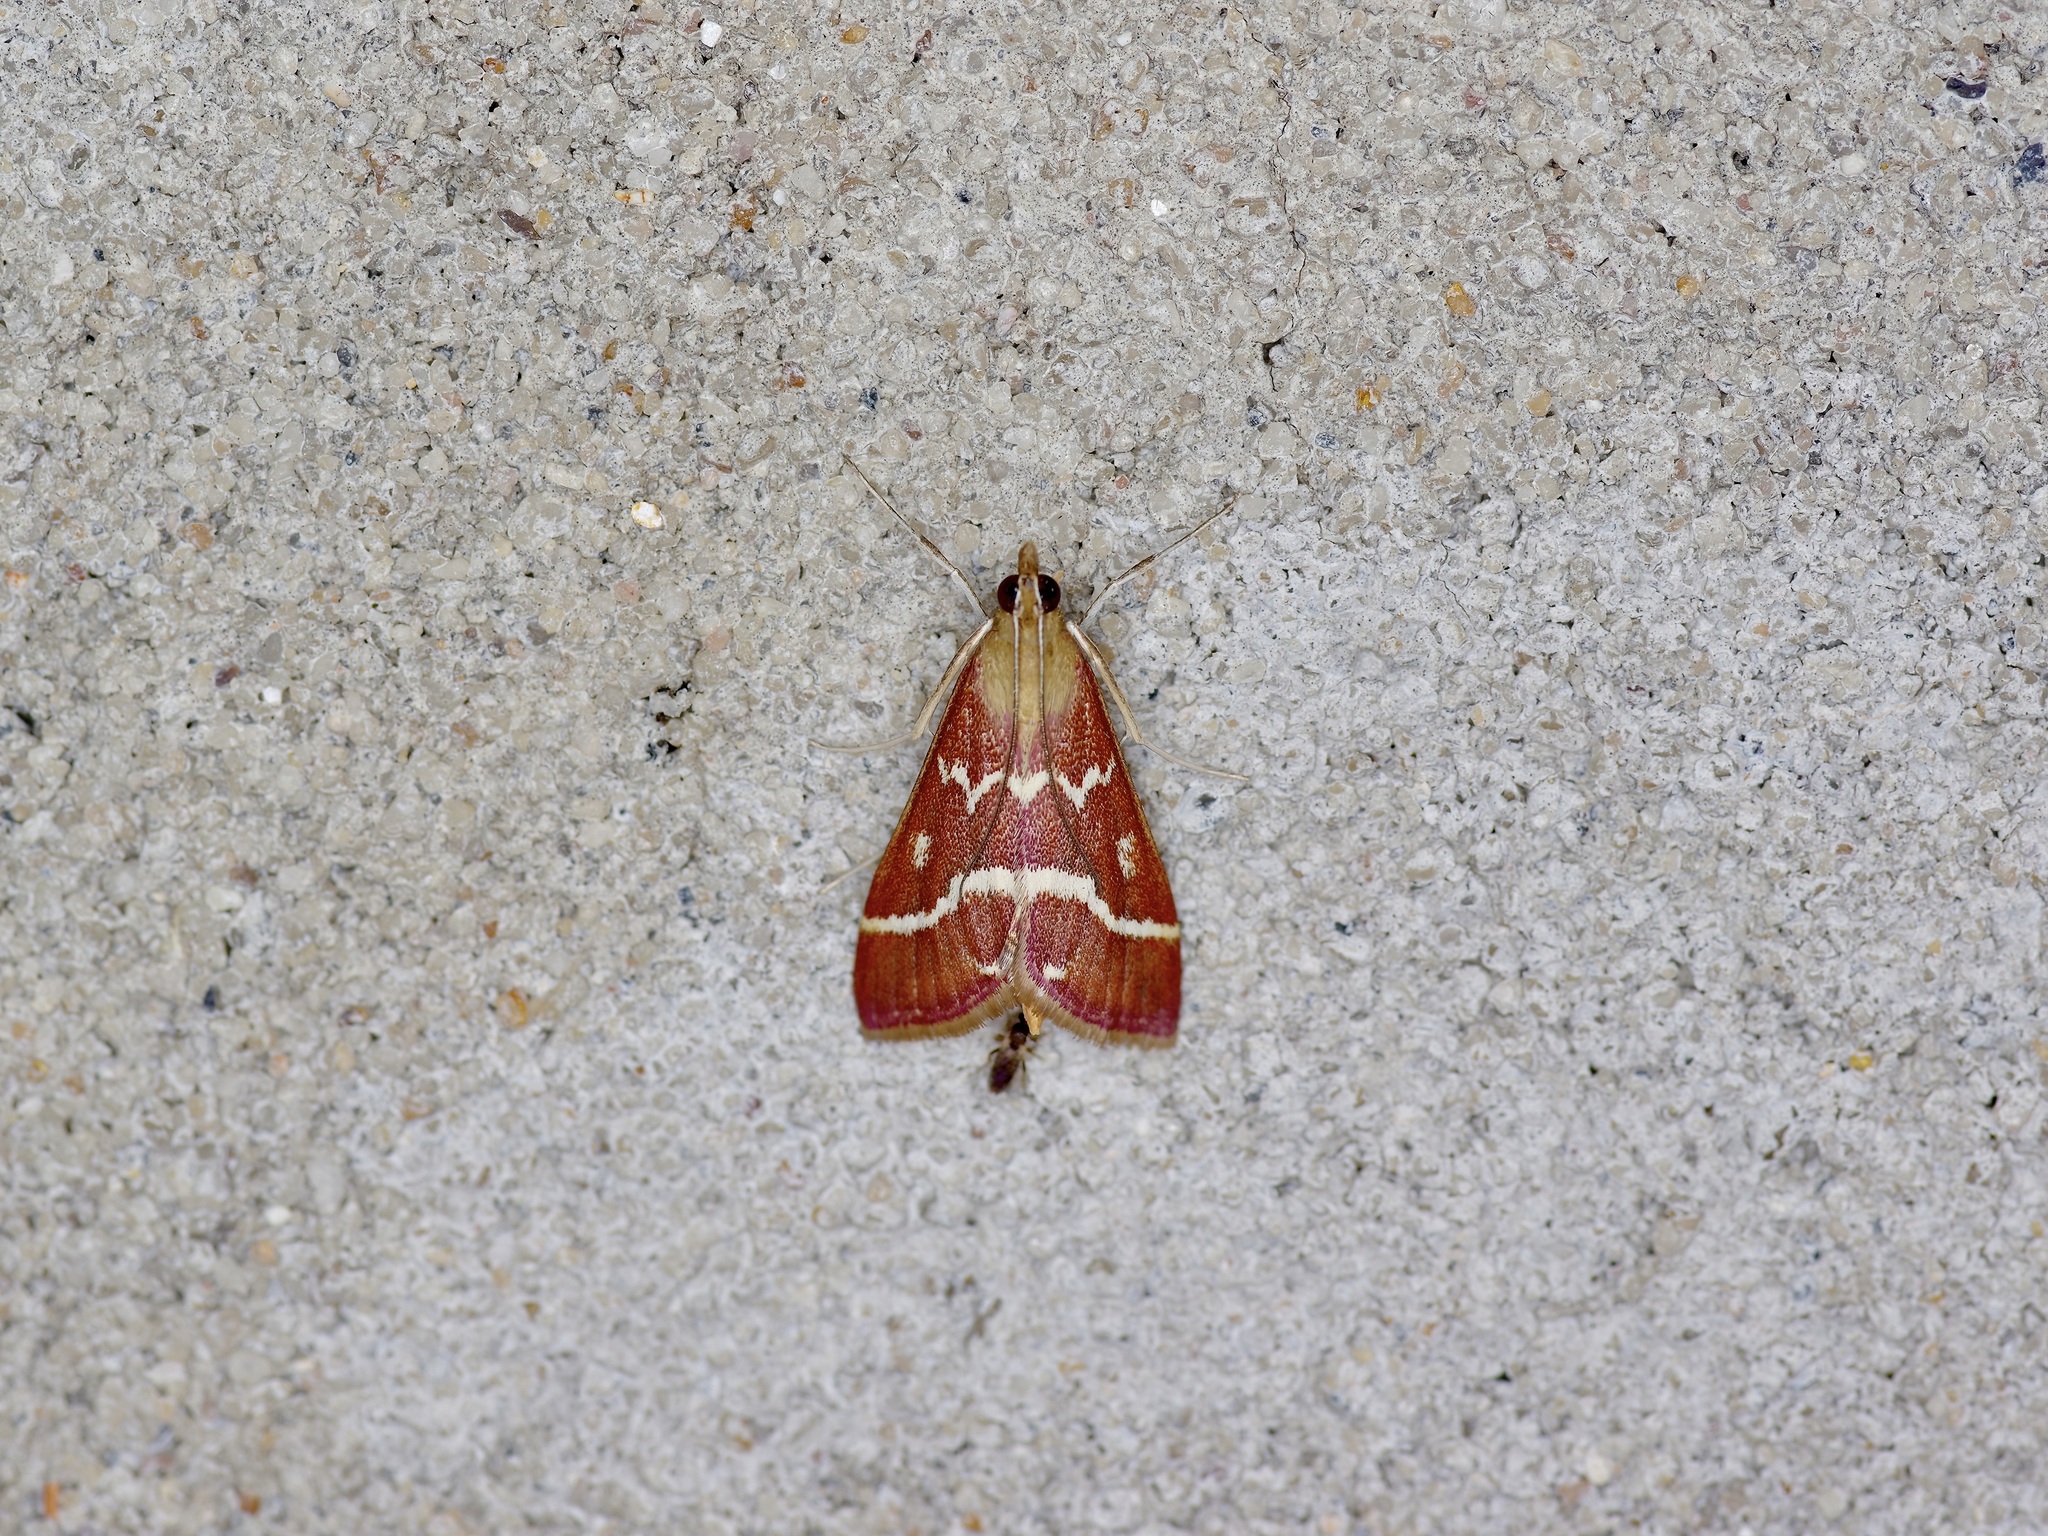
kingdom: Animalia
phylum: Arthropoda
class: Insecta
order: Lepidoptera
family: Crambidae
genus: Pyrausta
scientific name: Pyrausta volupialis
